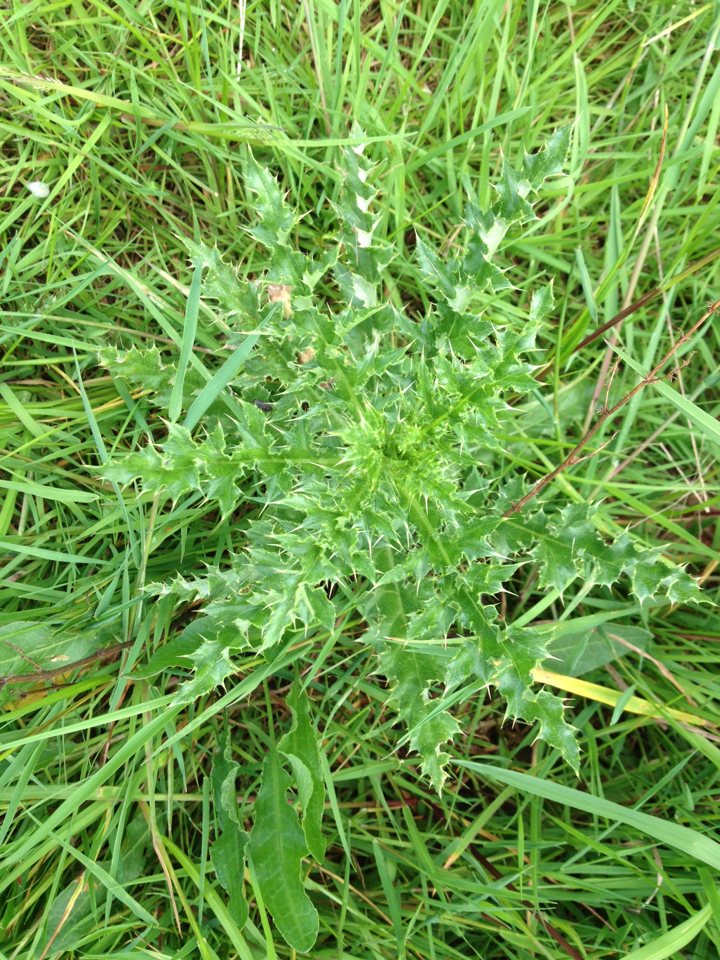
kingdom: Plantae
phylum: Tracheophyta
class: Magnoliopsida
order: Asterales
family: Asteraceae
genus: Cirsium
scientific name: Cirsium arvense
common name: Creeping thistle
